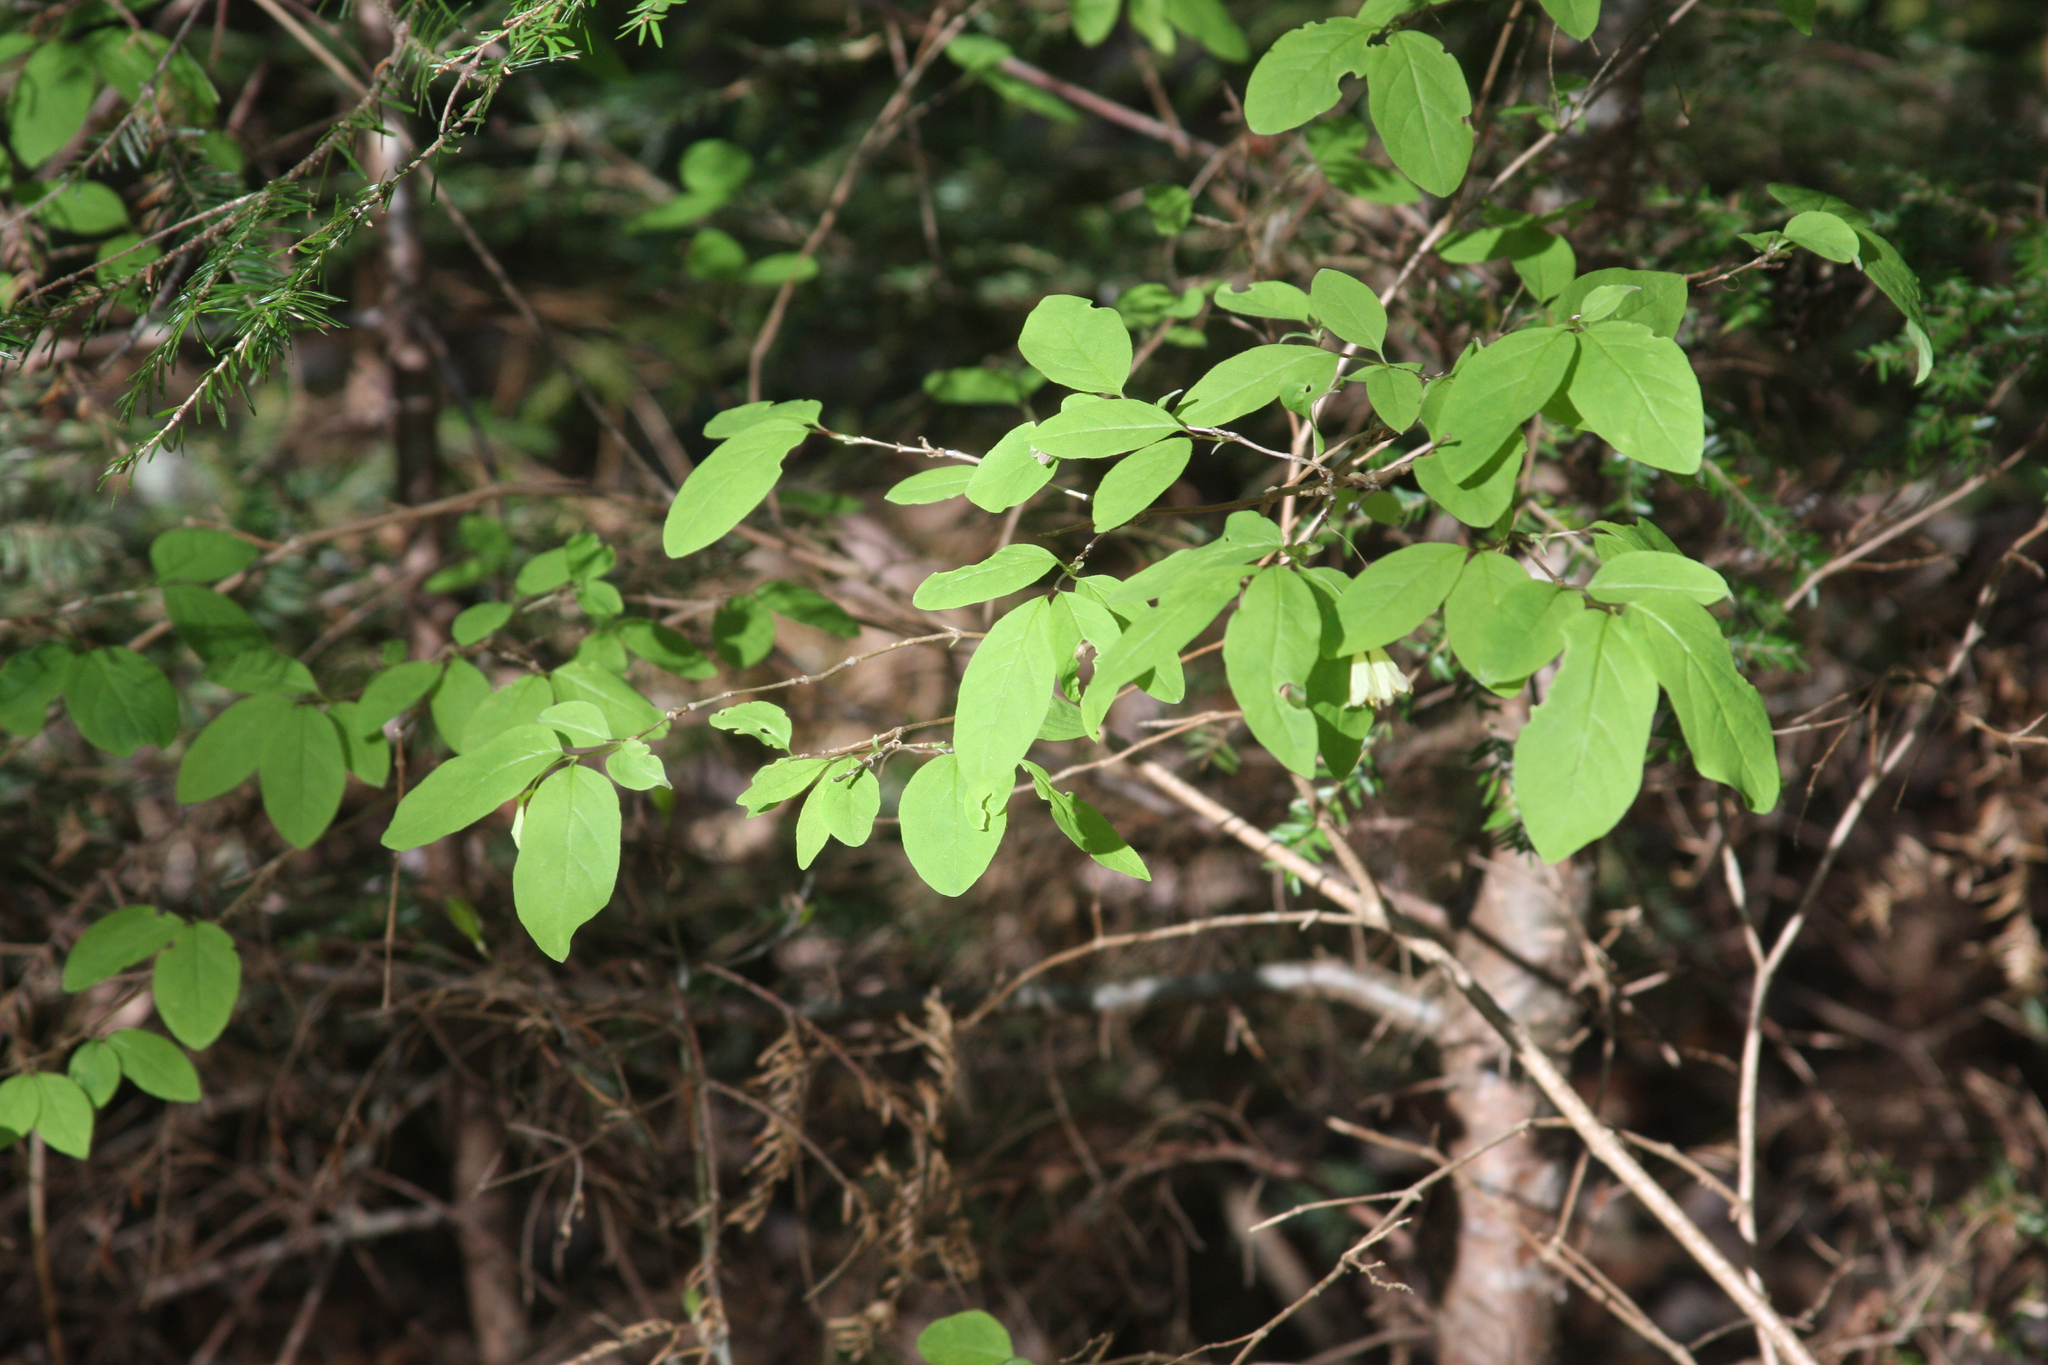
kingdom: Plantae
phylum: Tracheophyta
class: Magnoliopsida
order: Dipsacales
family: Caprifoliaceae
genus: Lonicera
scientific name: Lonicera canadensis
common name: American fly-honeysuckle
